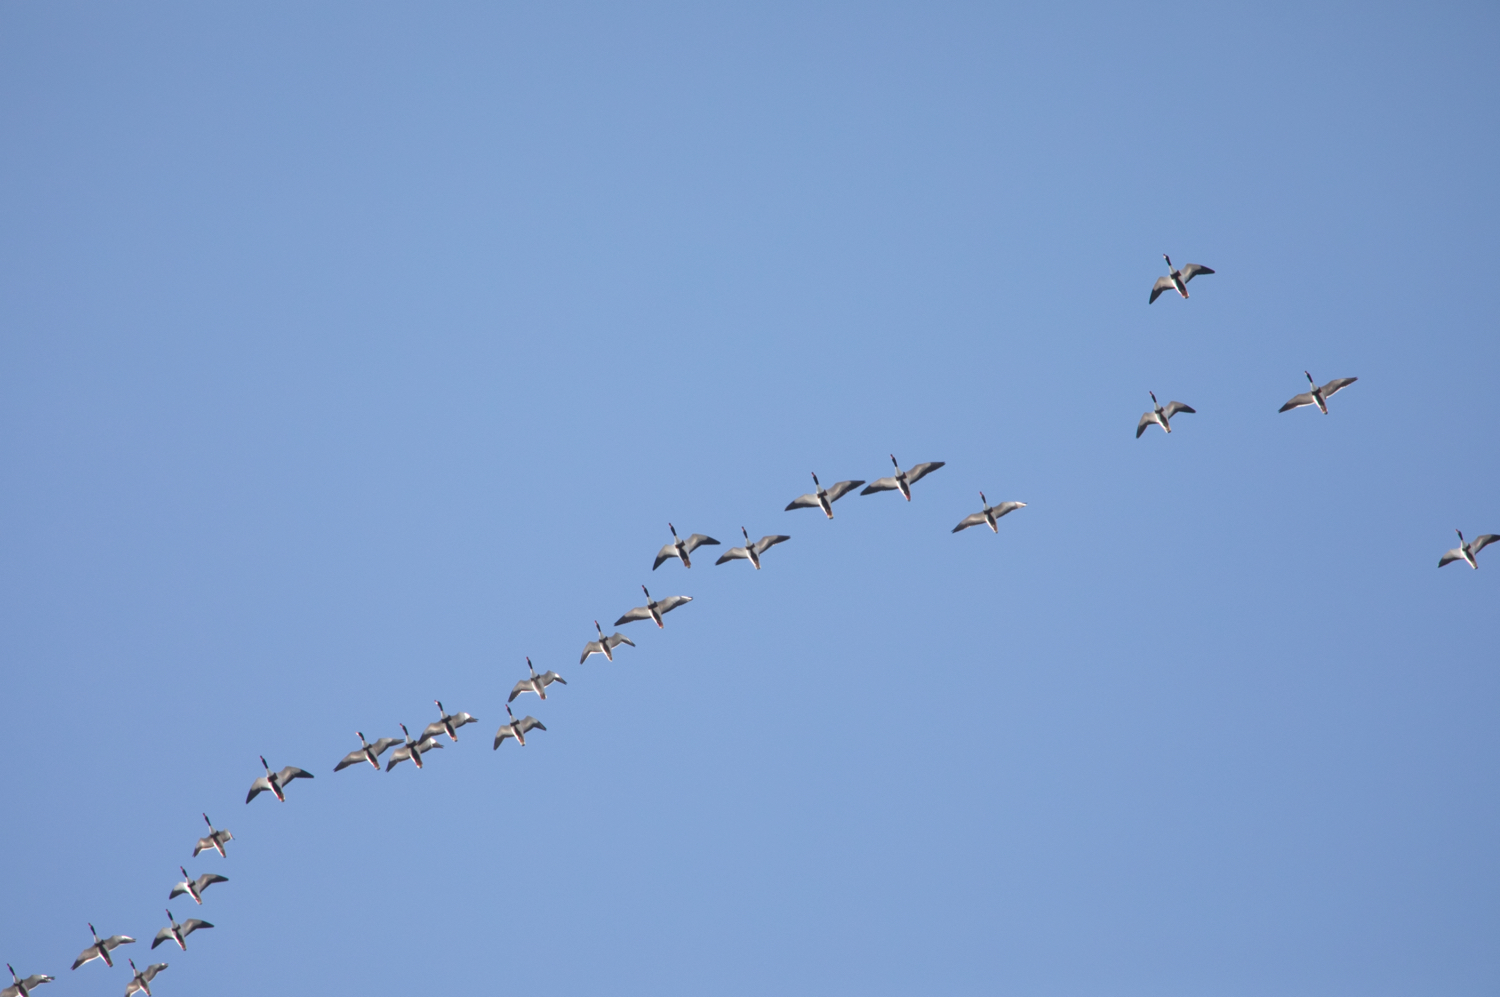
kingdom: Animalia
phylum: Chordata
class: Aves
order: Anseriformes
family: Anatidae
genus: Tadorna
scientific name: Tadorna tadorna
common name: Common shelduck
